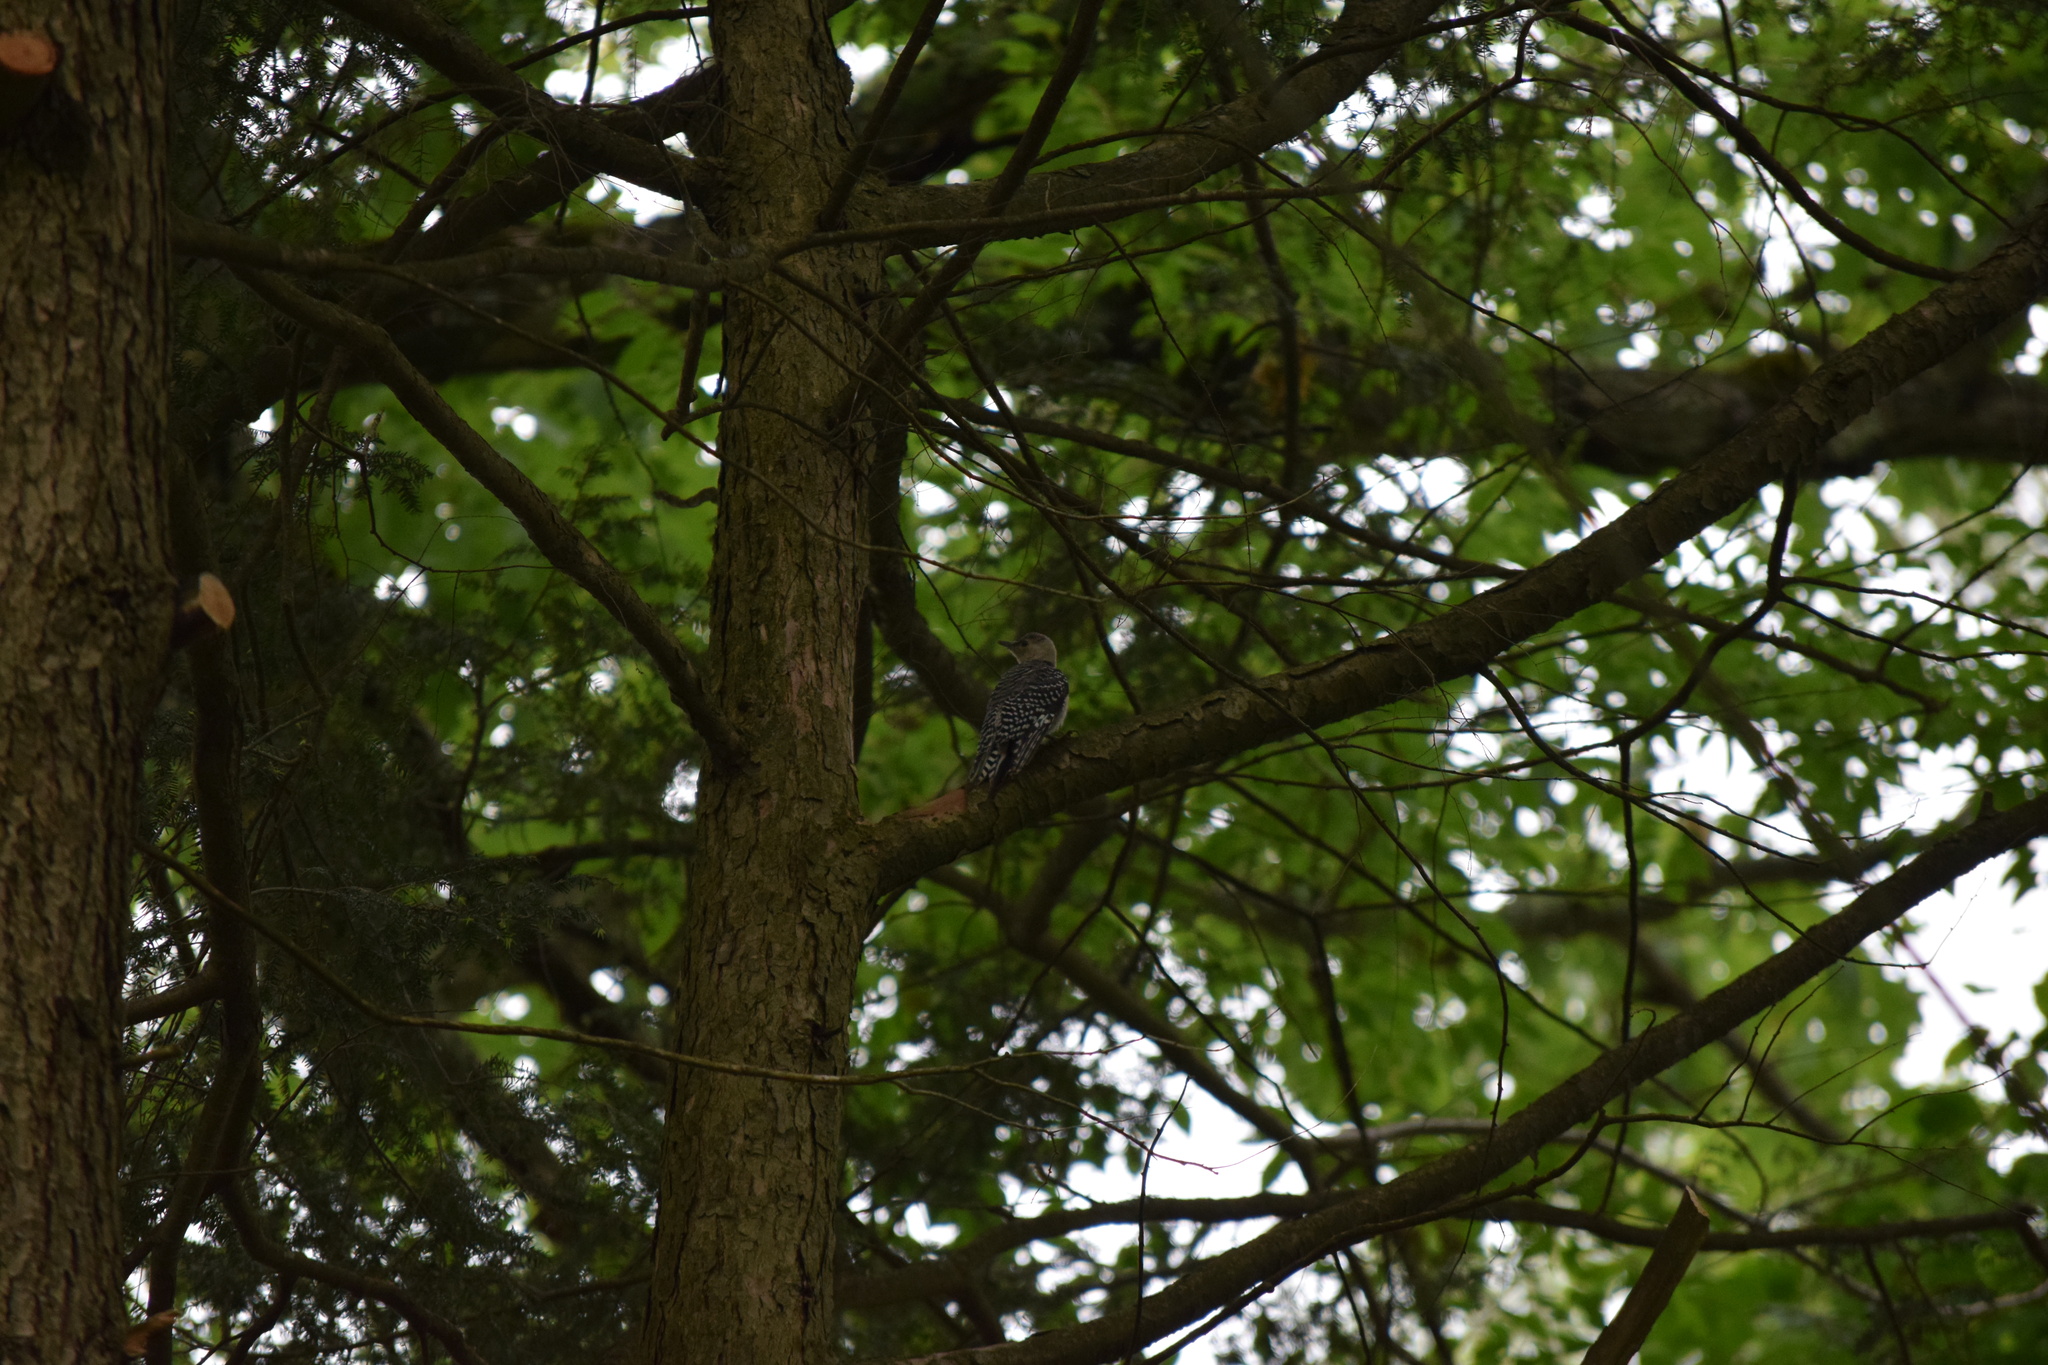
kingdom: Animalia
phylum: Chordata
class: Aves
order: Piciformes
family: Picidae
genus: Melanerpes
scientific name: Melanerpes carolinus
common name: Red-bellied woodpecker
